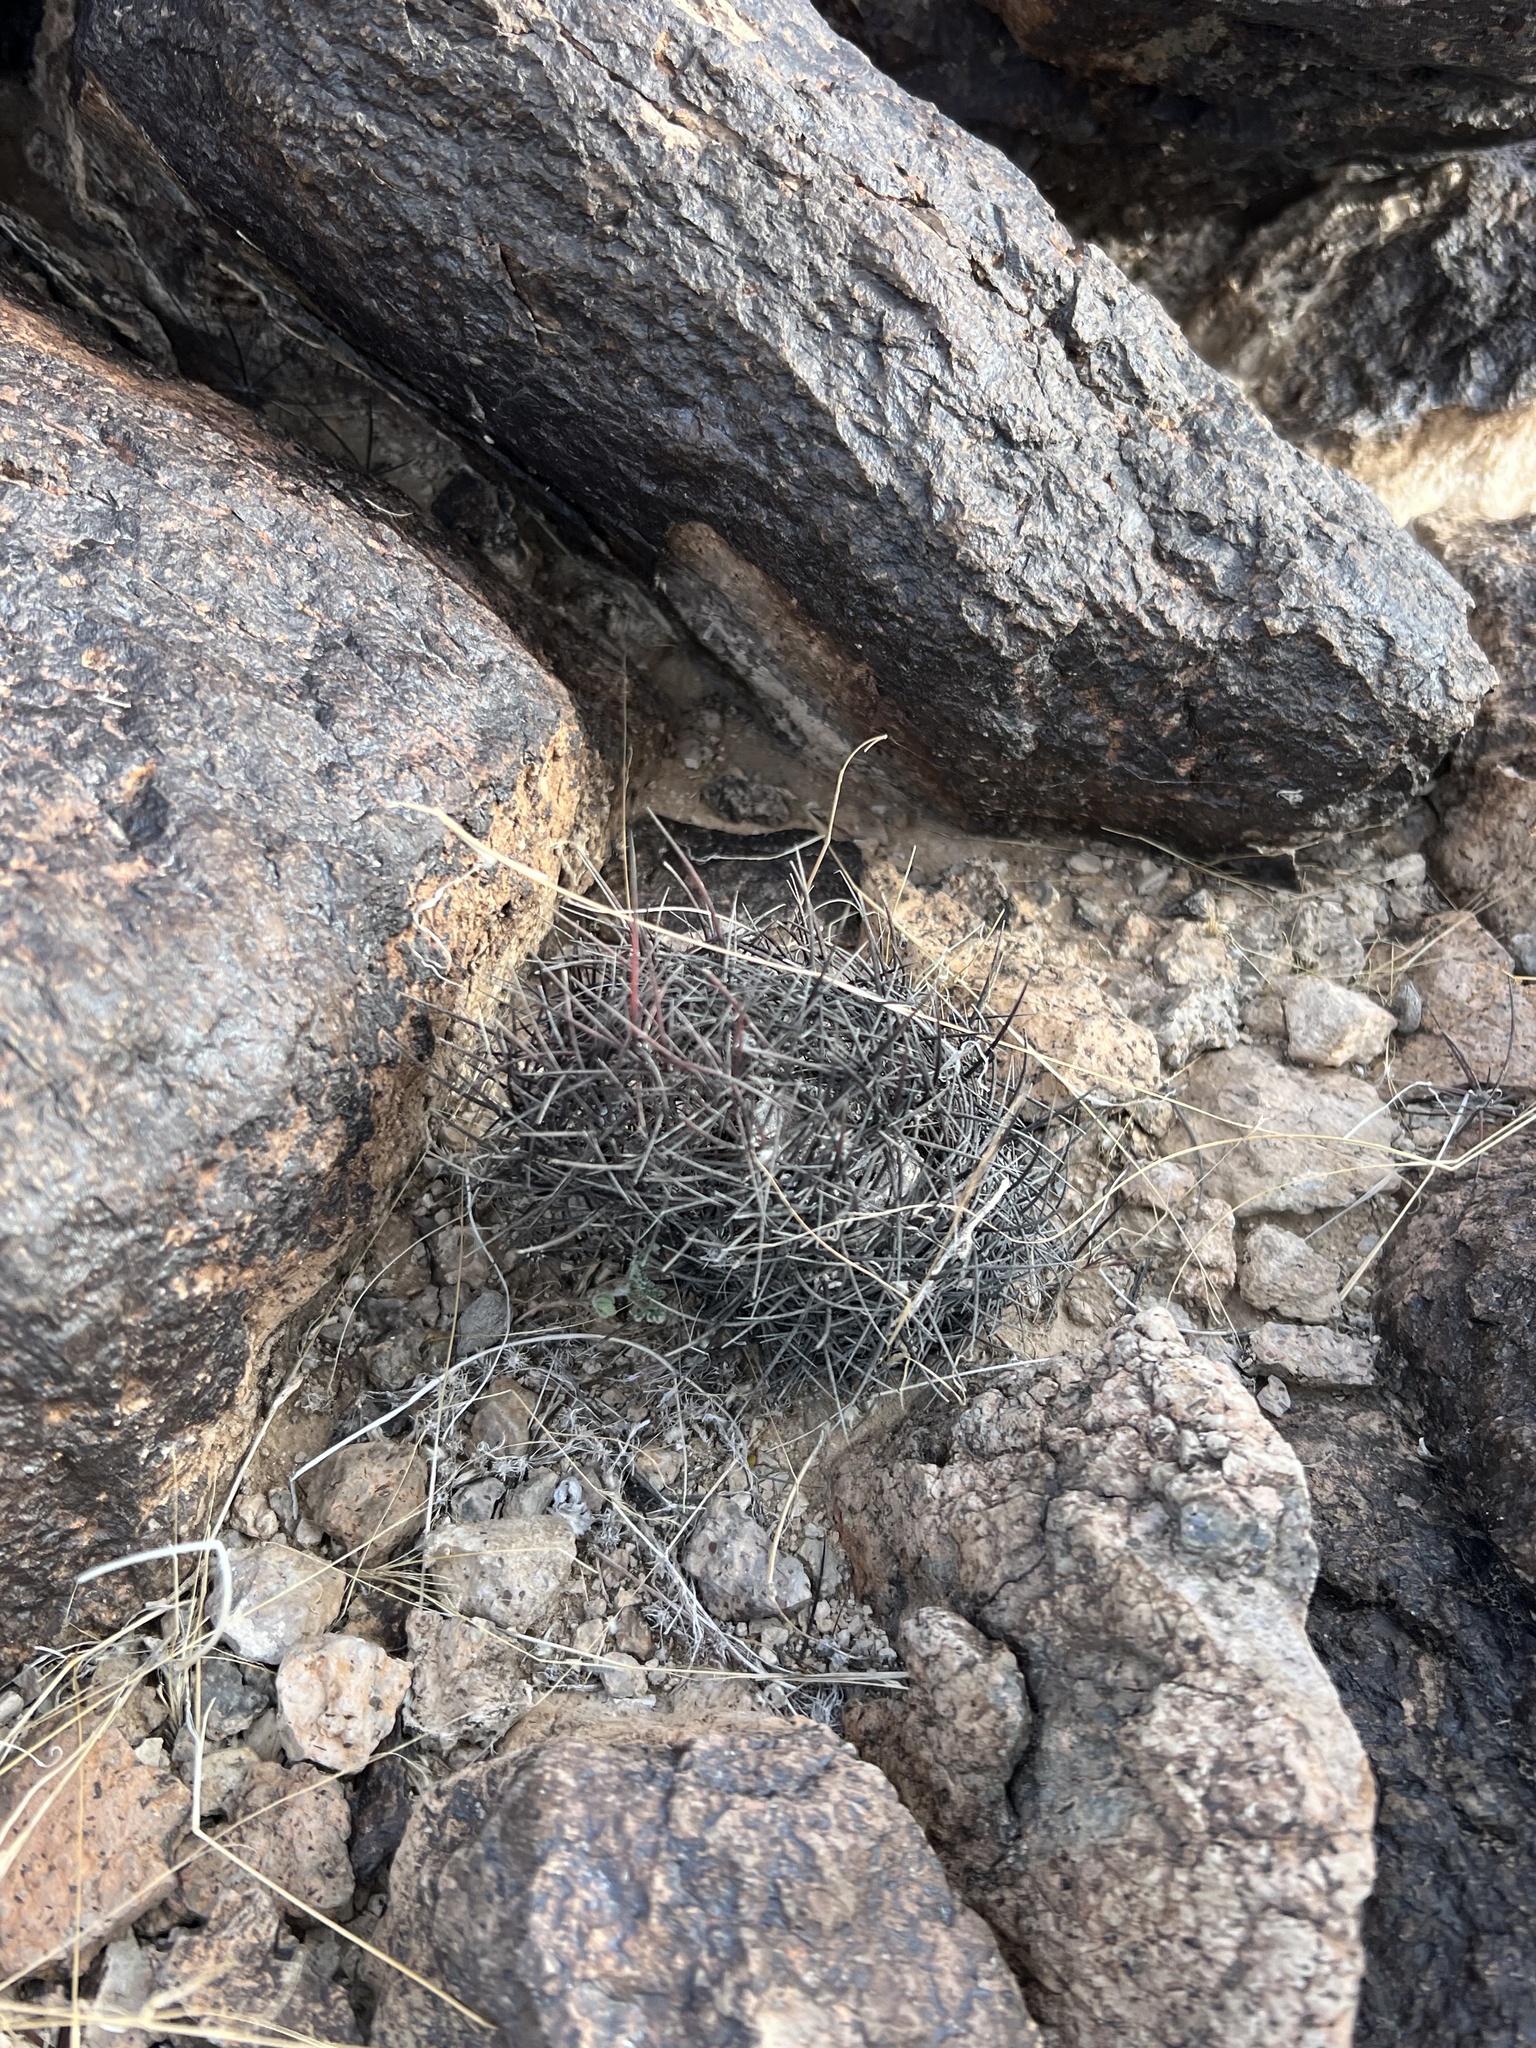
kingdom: Plantae
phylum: Tracheophyta
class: Magnoliopsida
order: Caryophyllales
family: Cactaceae
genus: Sclerocactus
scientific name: Sclerocactus johnsonii
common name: Eight-spine fishhook cactus
